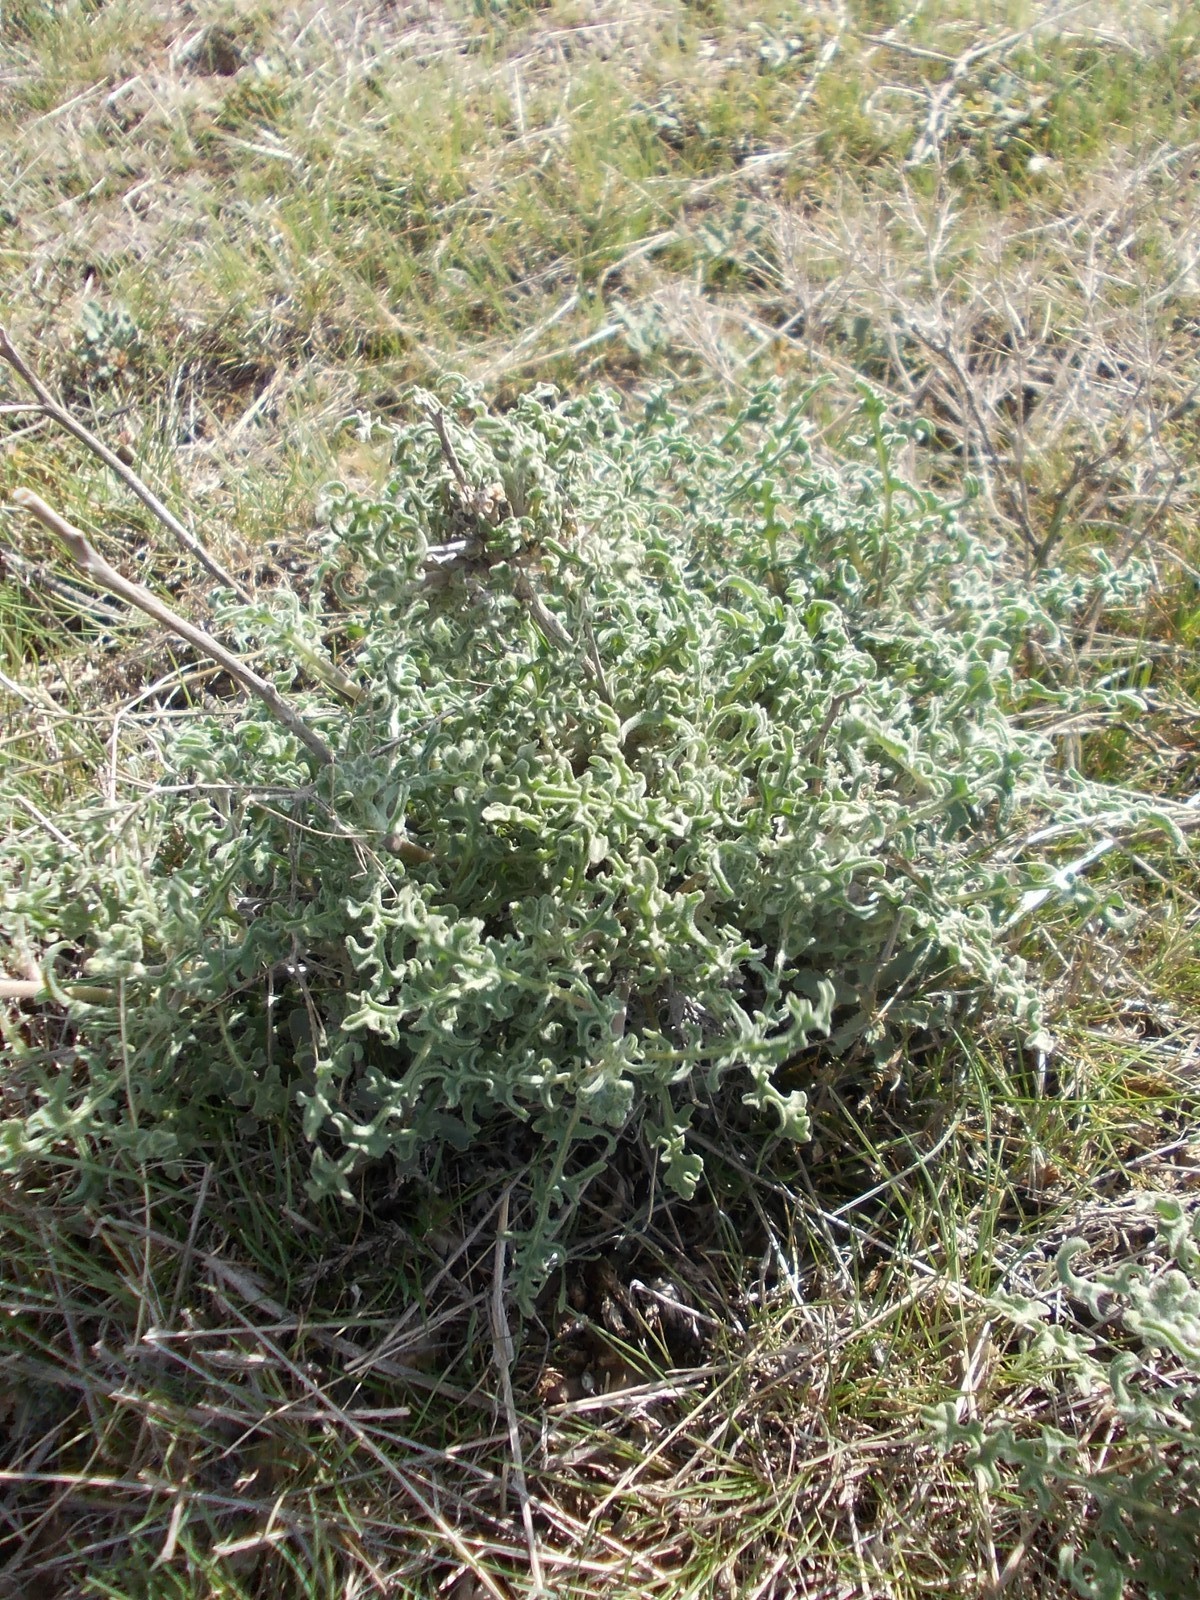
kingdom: Plantae
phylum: Tracheophyta
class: Magnoliopsida
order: Brassicales
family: Brassicaceae
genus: Sterigmostemum
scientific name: Sterigmostemum caspicum
